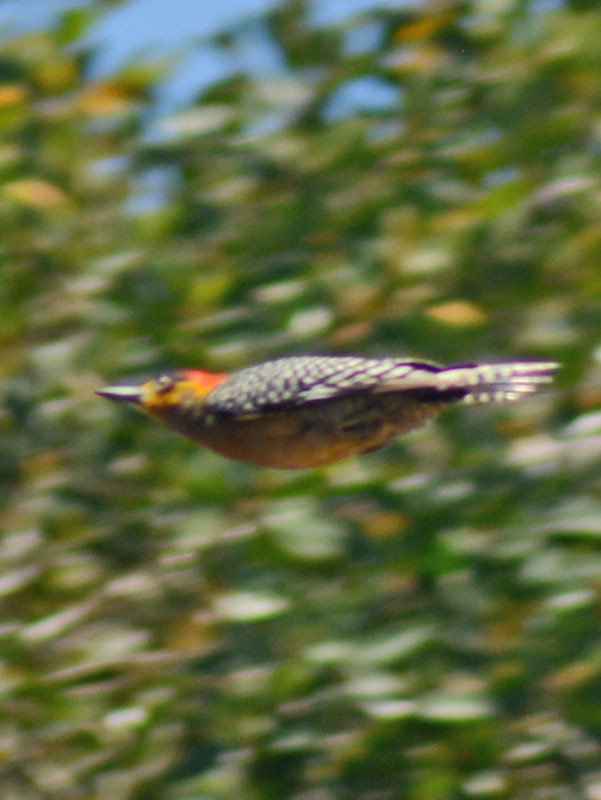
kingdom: Animalia
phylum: Chordata
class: Aves
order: Piciformes
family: Picidae
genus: Melanerpes
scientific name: Melanerpes chrysogenys
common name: Golden-cheeked woodpecker
